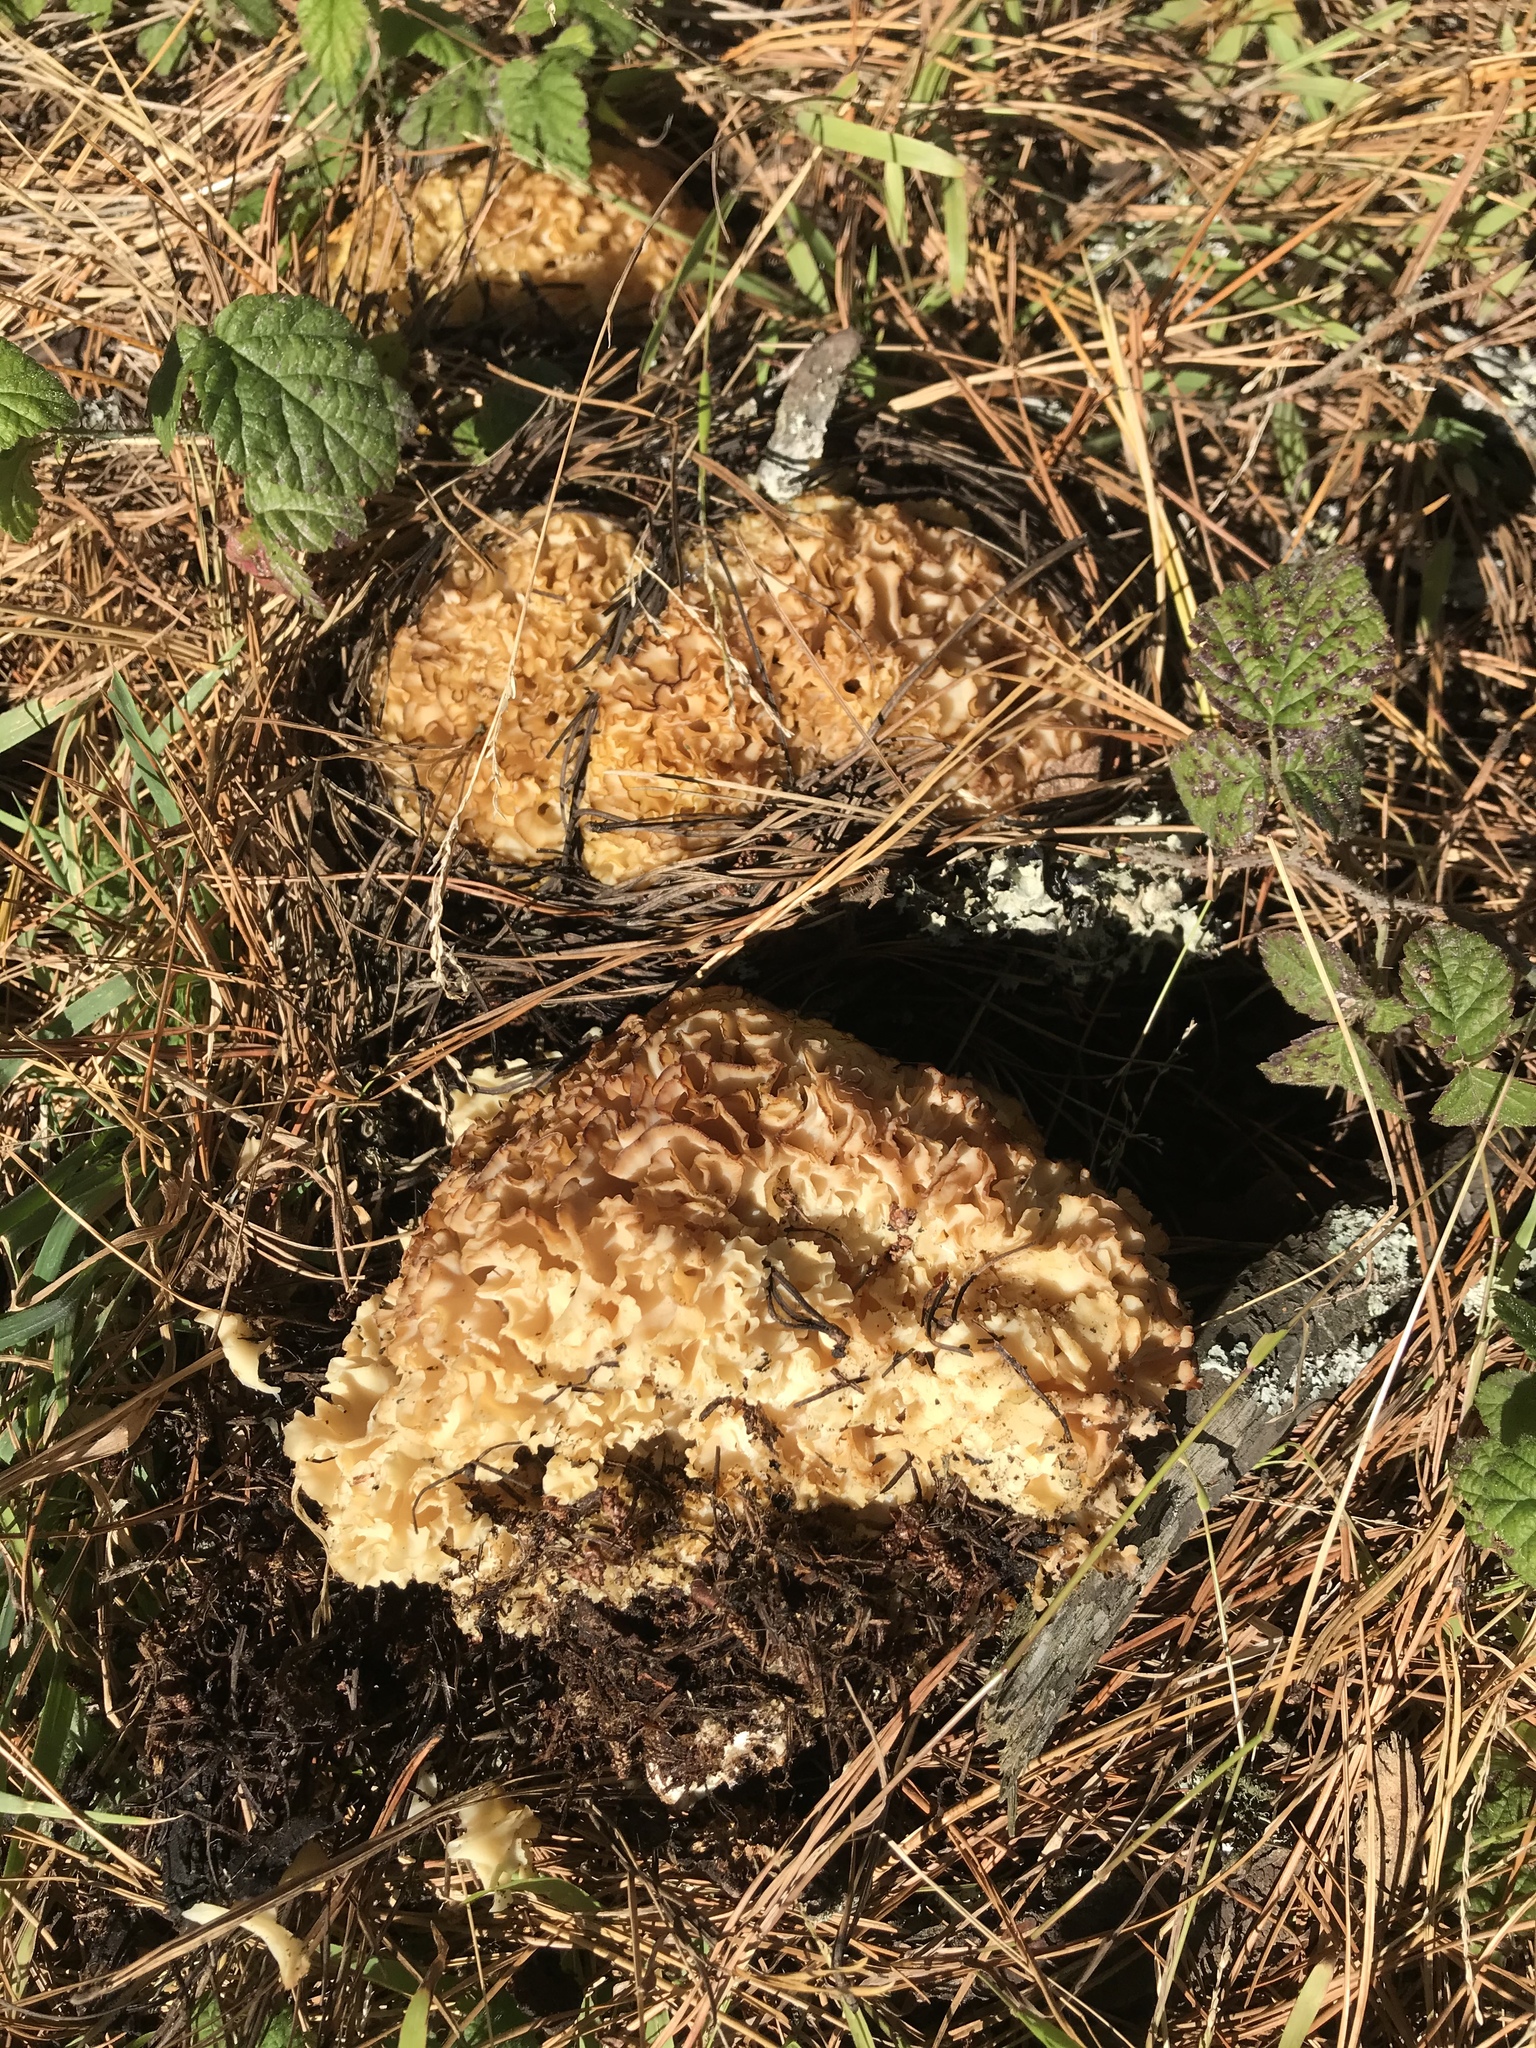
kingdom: Fungi
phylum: Basidiomycota
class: Agaricomycetes
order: Polyporales
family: Sparassidaceae
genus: Sparassis
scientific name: Sparassis radicata
